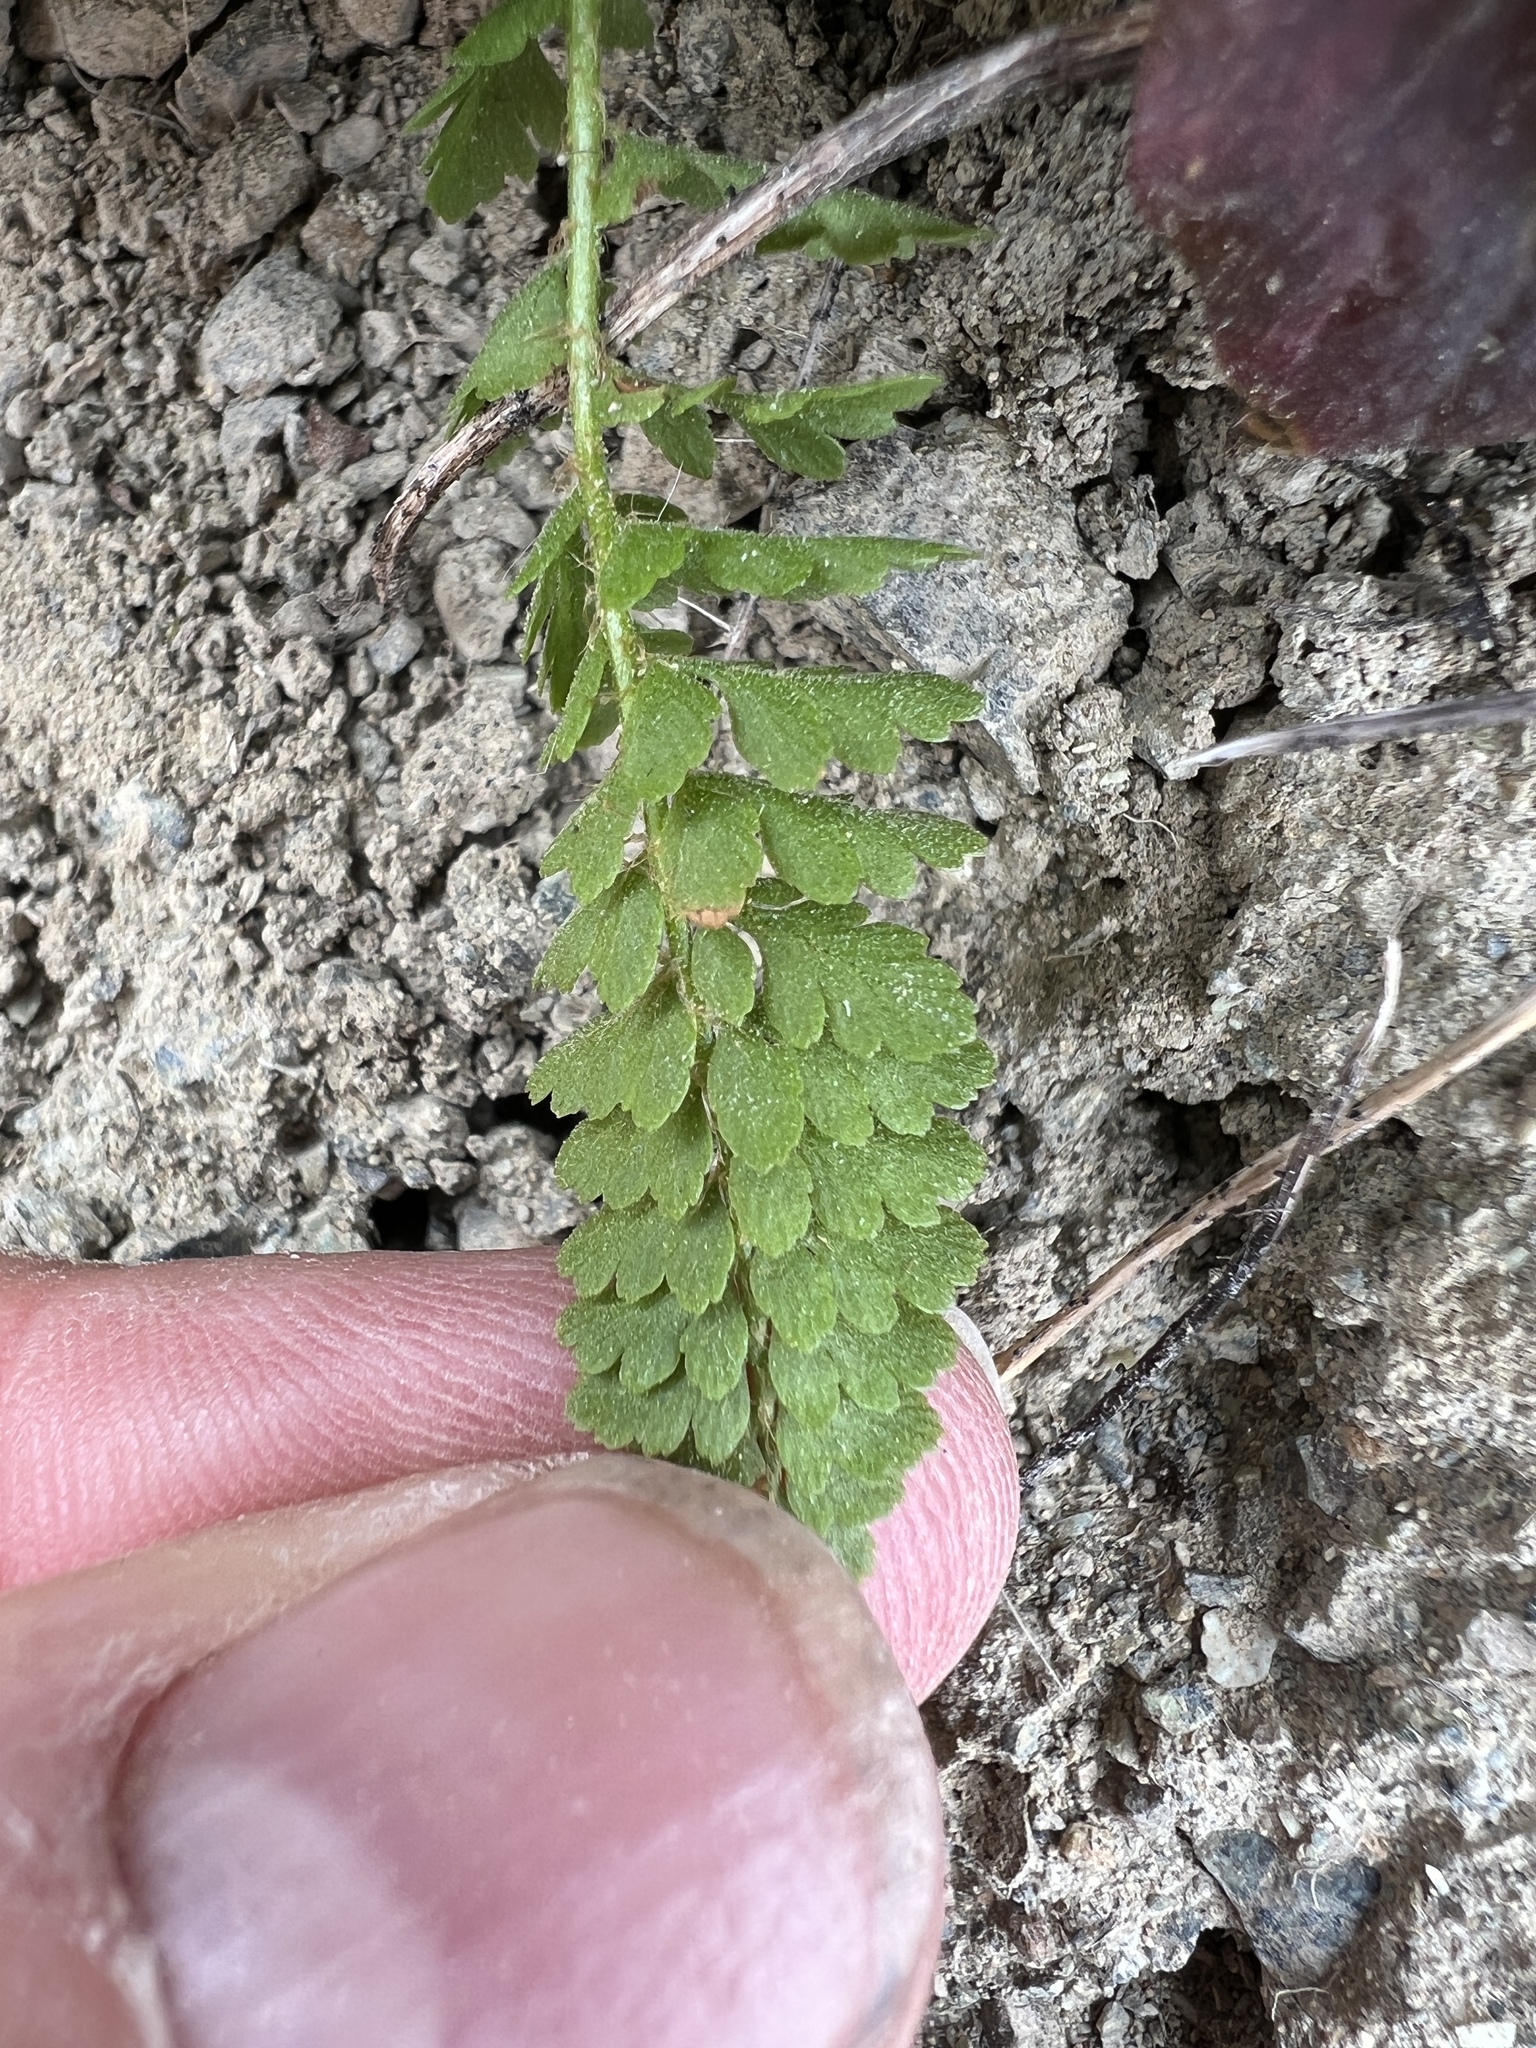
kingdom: Plantae
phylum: Tracheophyta
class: Polypodiopsida
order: Polypodiales
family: Dryopteridaceae
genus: Polystichum
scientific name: Polystichum lemmonii
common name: Lemmon's holly fern
